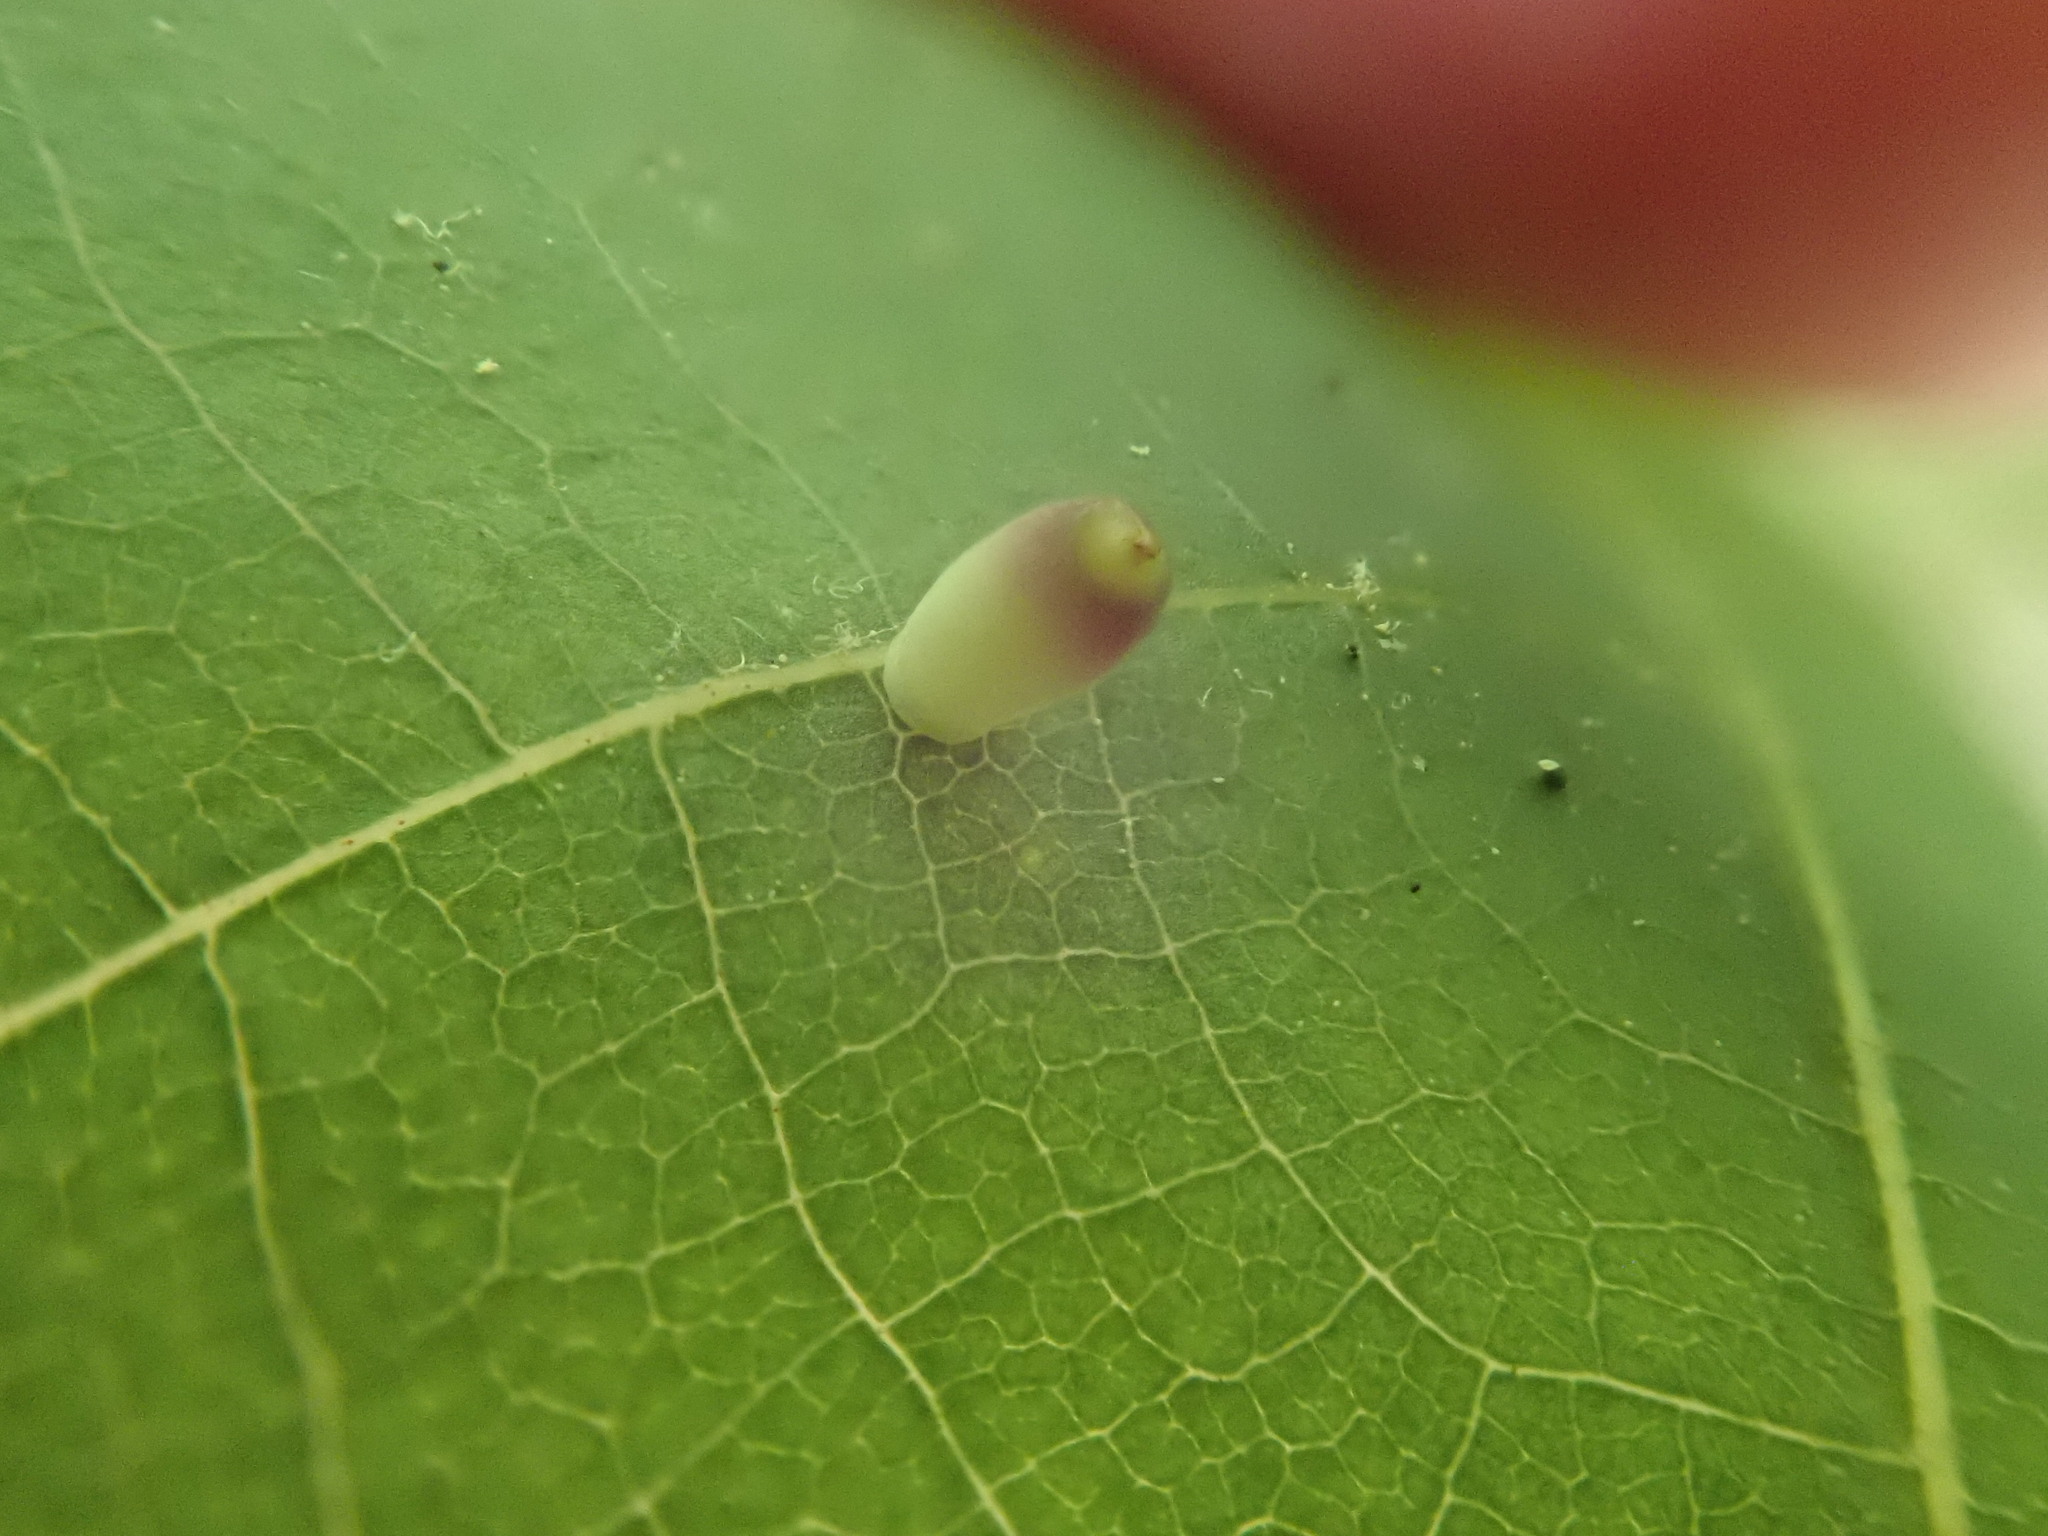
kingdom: Animalia
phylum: Arthropoda
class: Insecta
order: Diptera
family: Cecidomyiidae
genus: Caryomyia
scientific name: Caryomyia urnula
